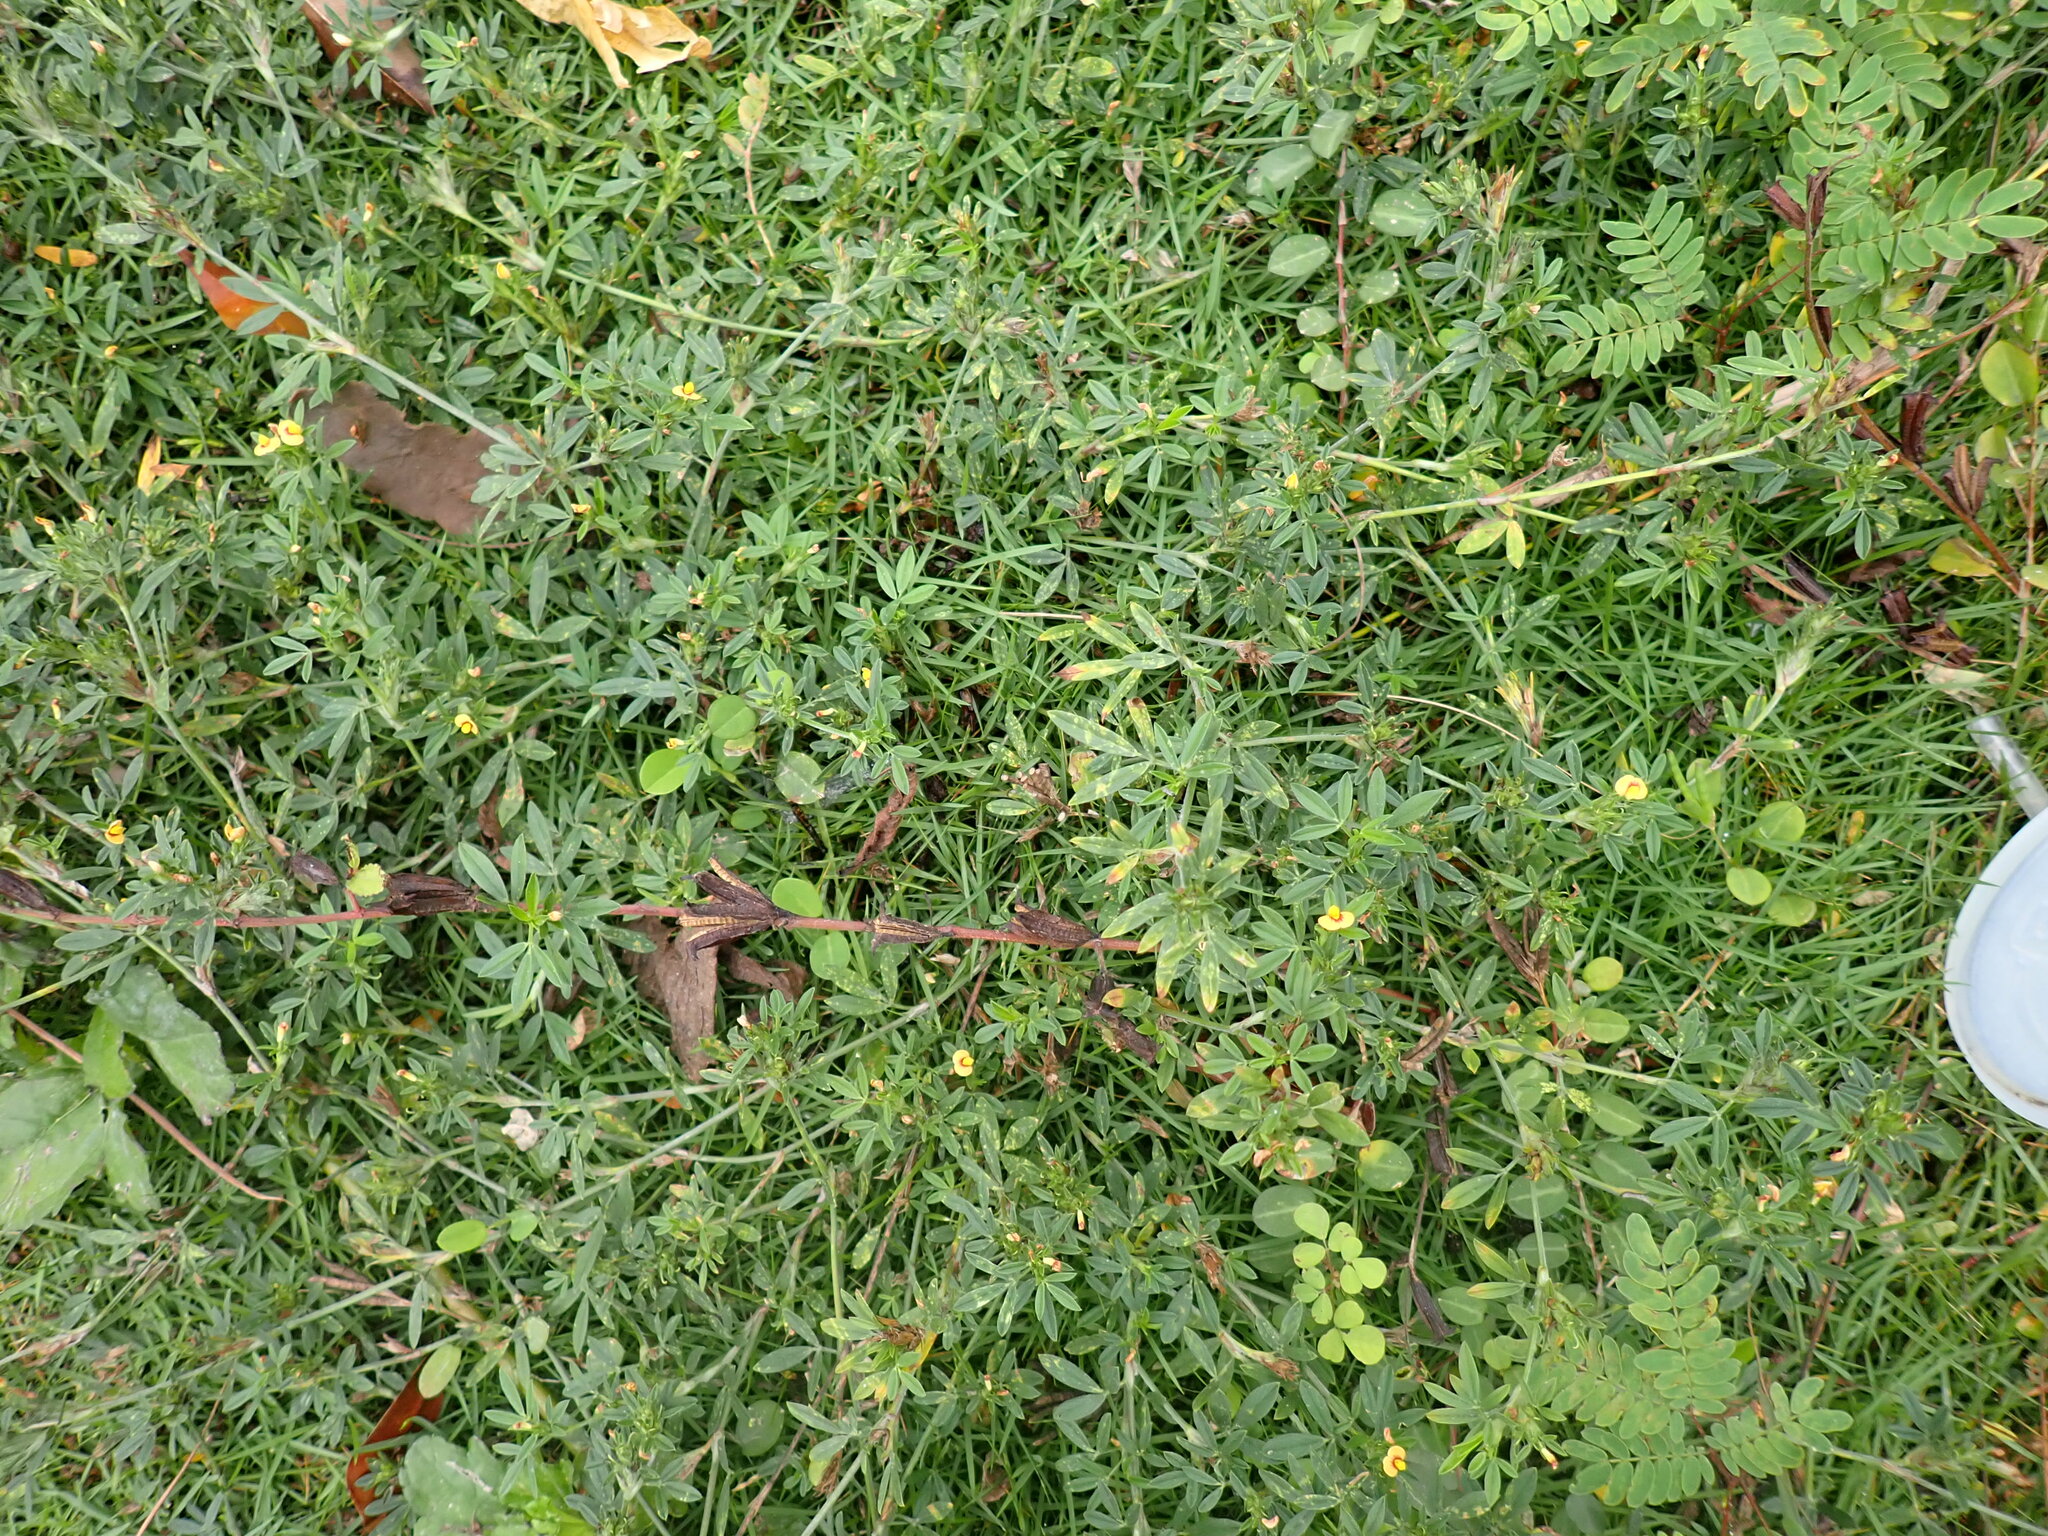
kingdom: Plantae
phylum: Tracheophyta
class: Magnoliopsida
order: Fabales
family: Fabaceae
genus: Stylosanthes
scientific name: Stylosanthes hamata
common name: Cheesytoes
